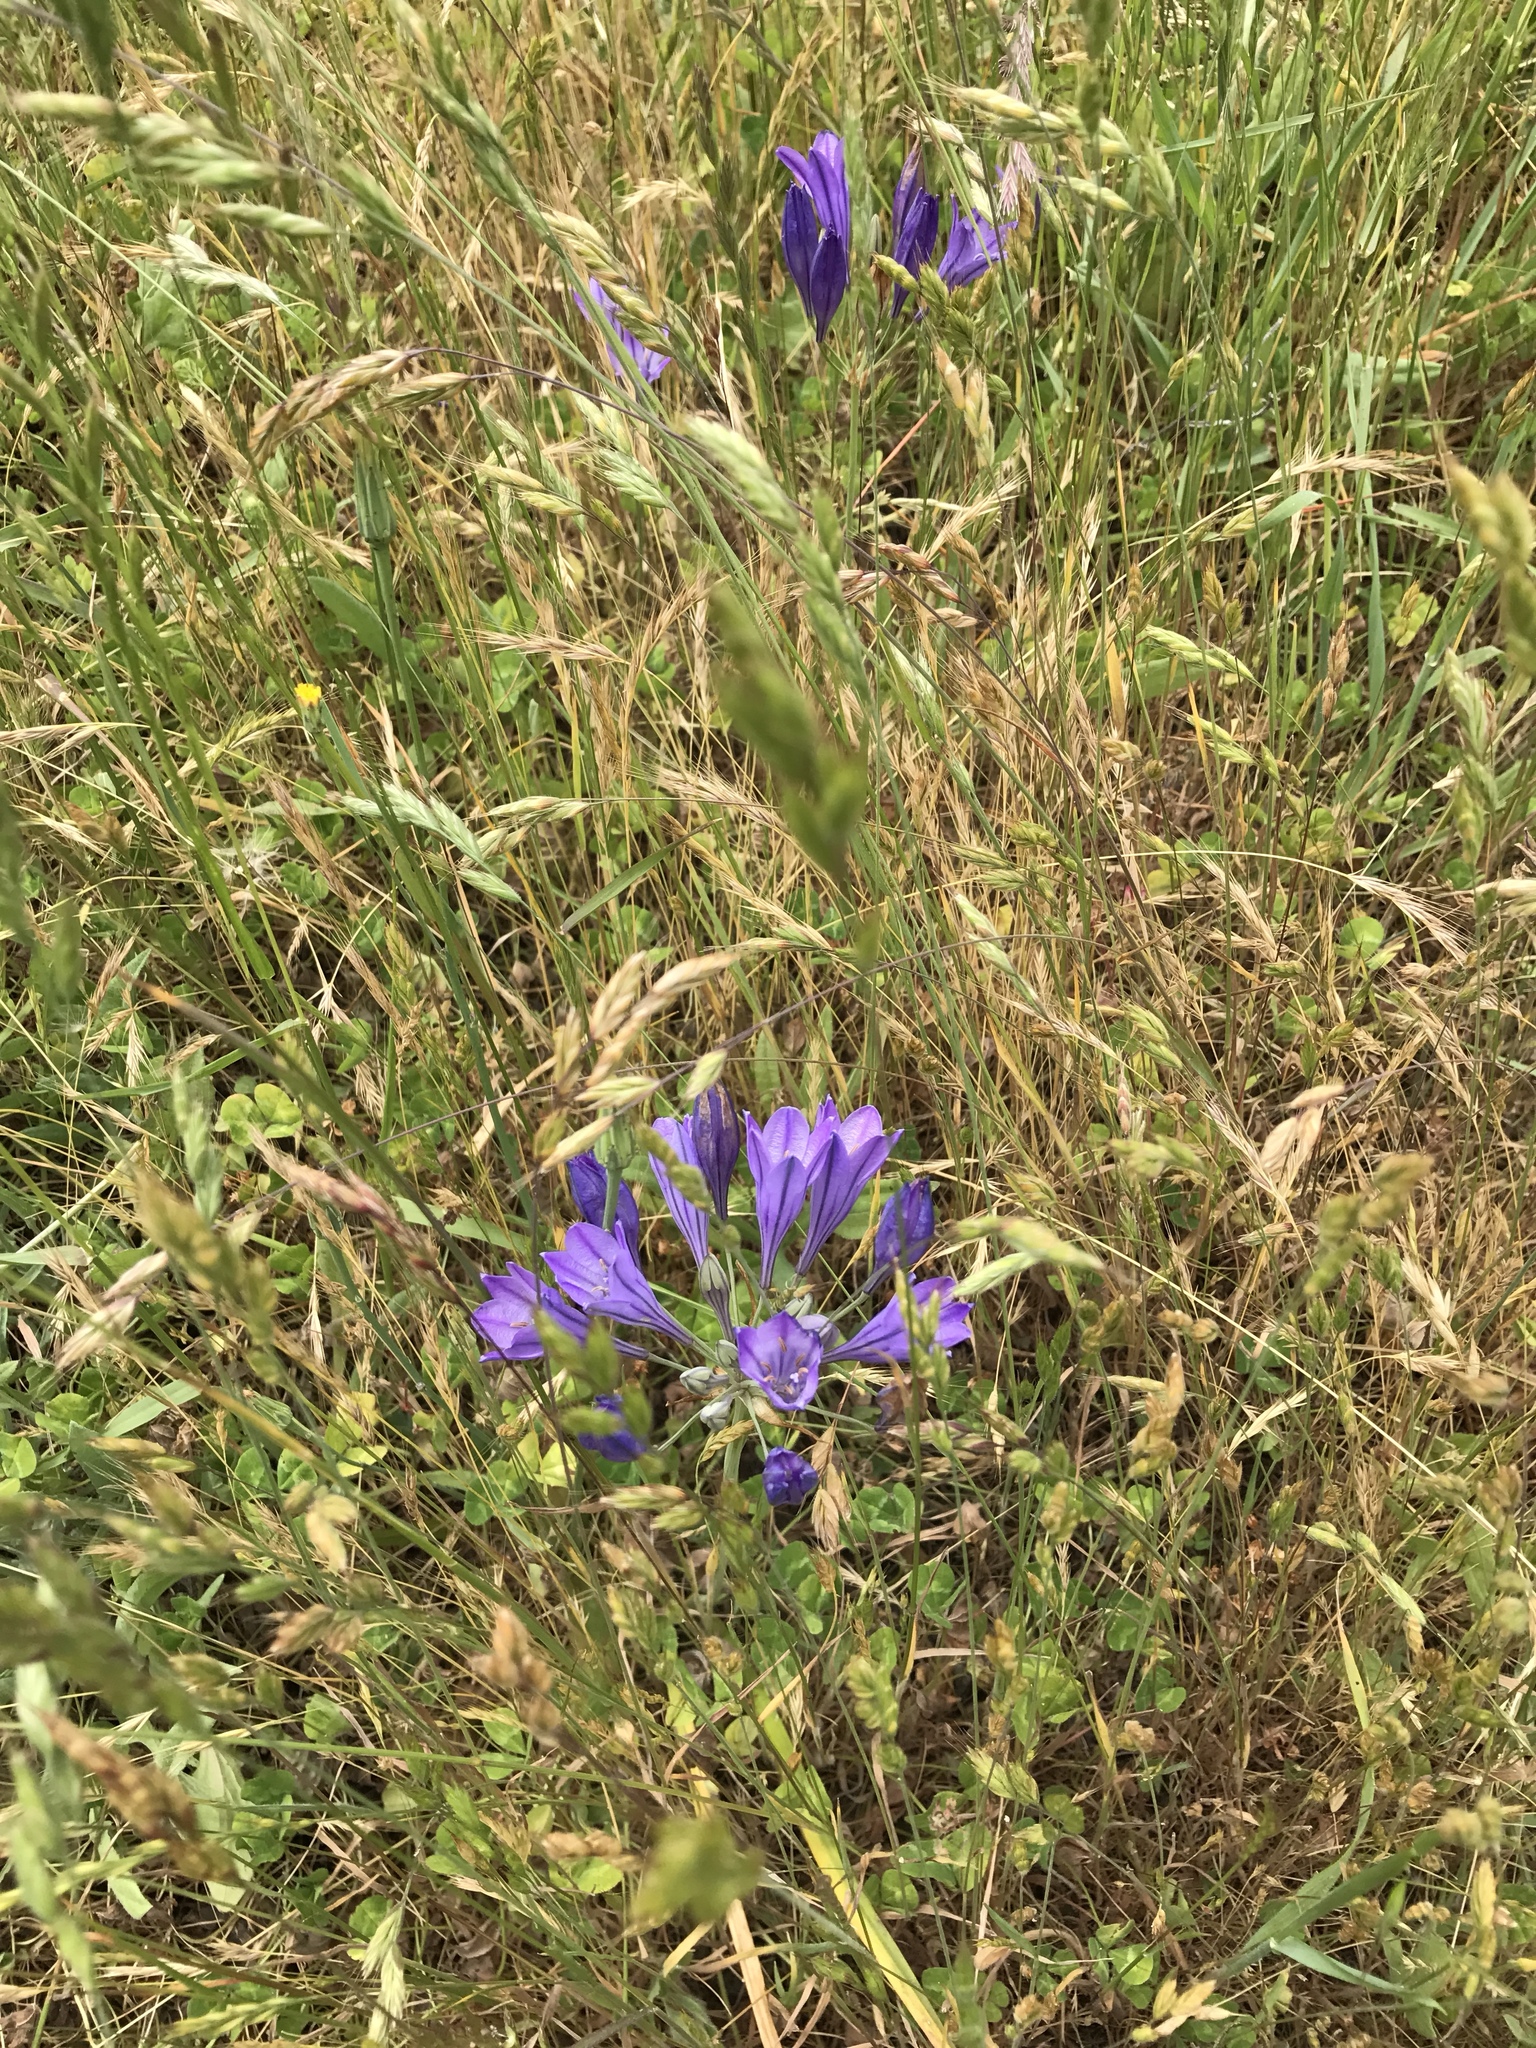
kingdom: Plantae
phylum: Tracheophyta
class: Liliopsida
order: Asparagales
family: Asparagaceae
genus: Triteleia
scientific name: Triteleia laxa
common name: Triplet-lily
